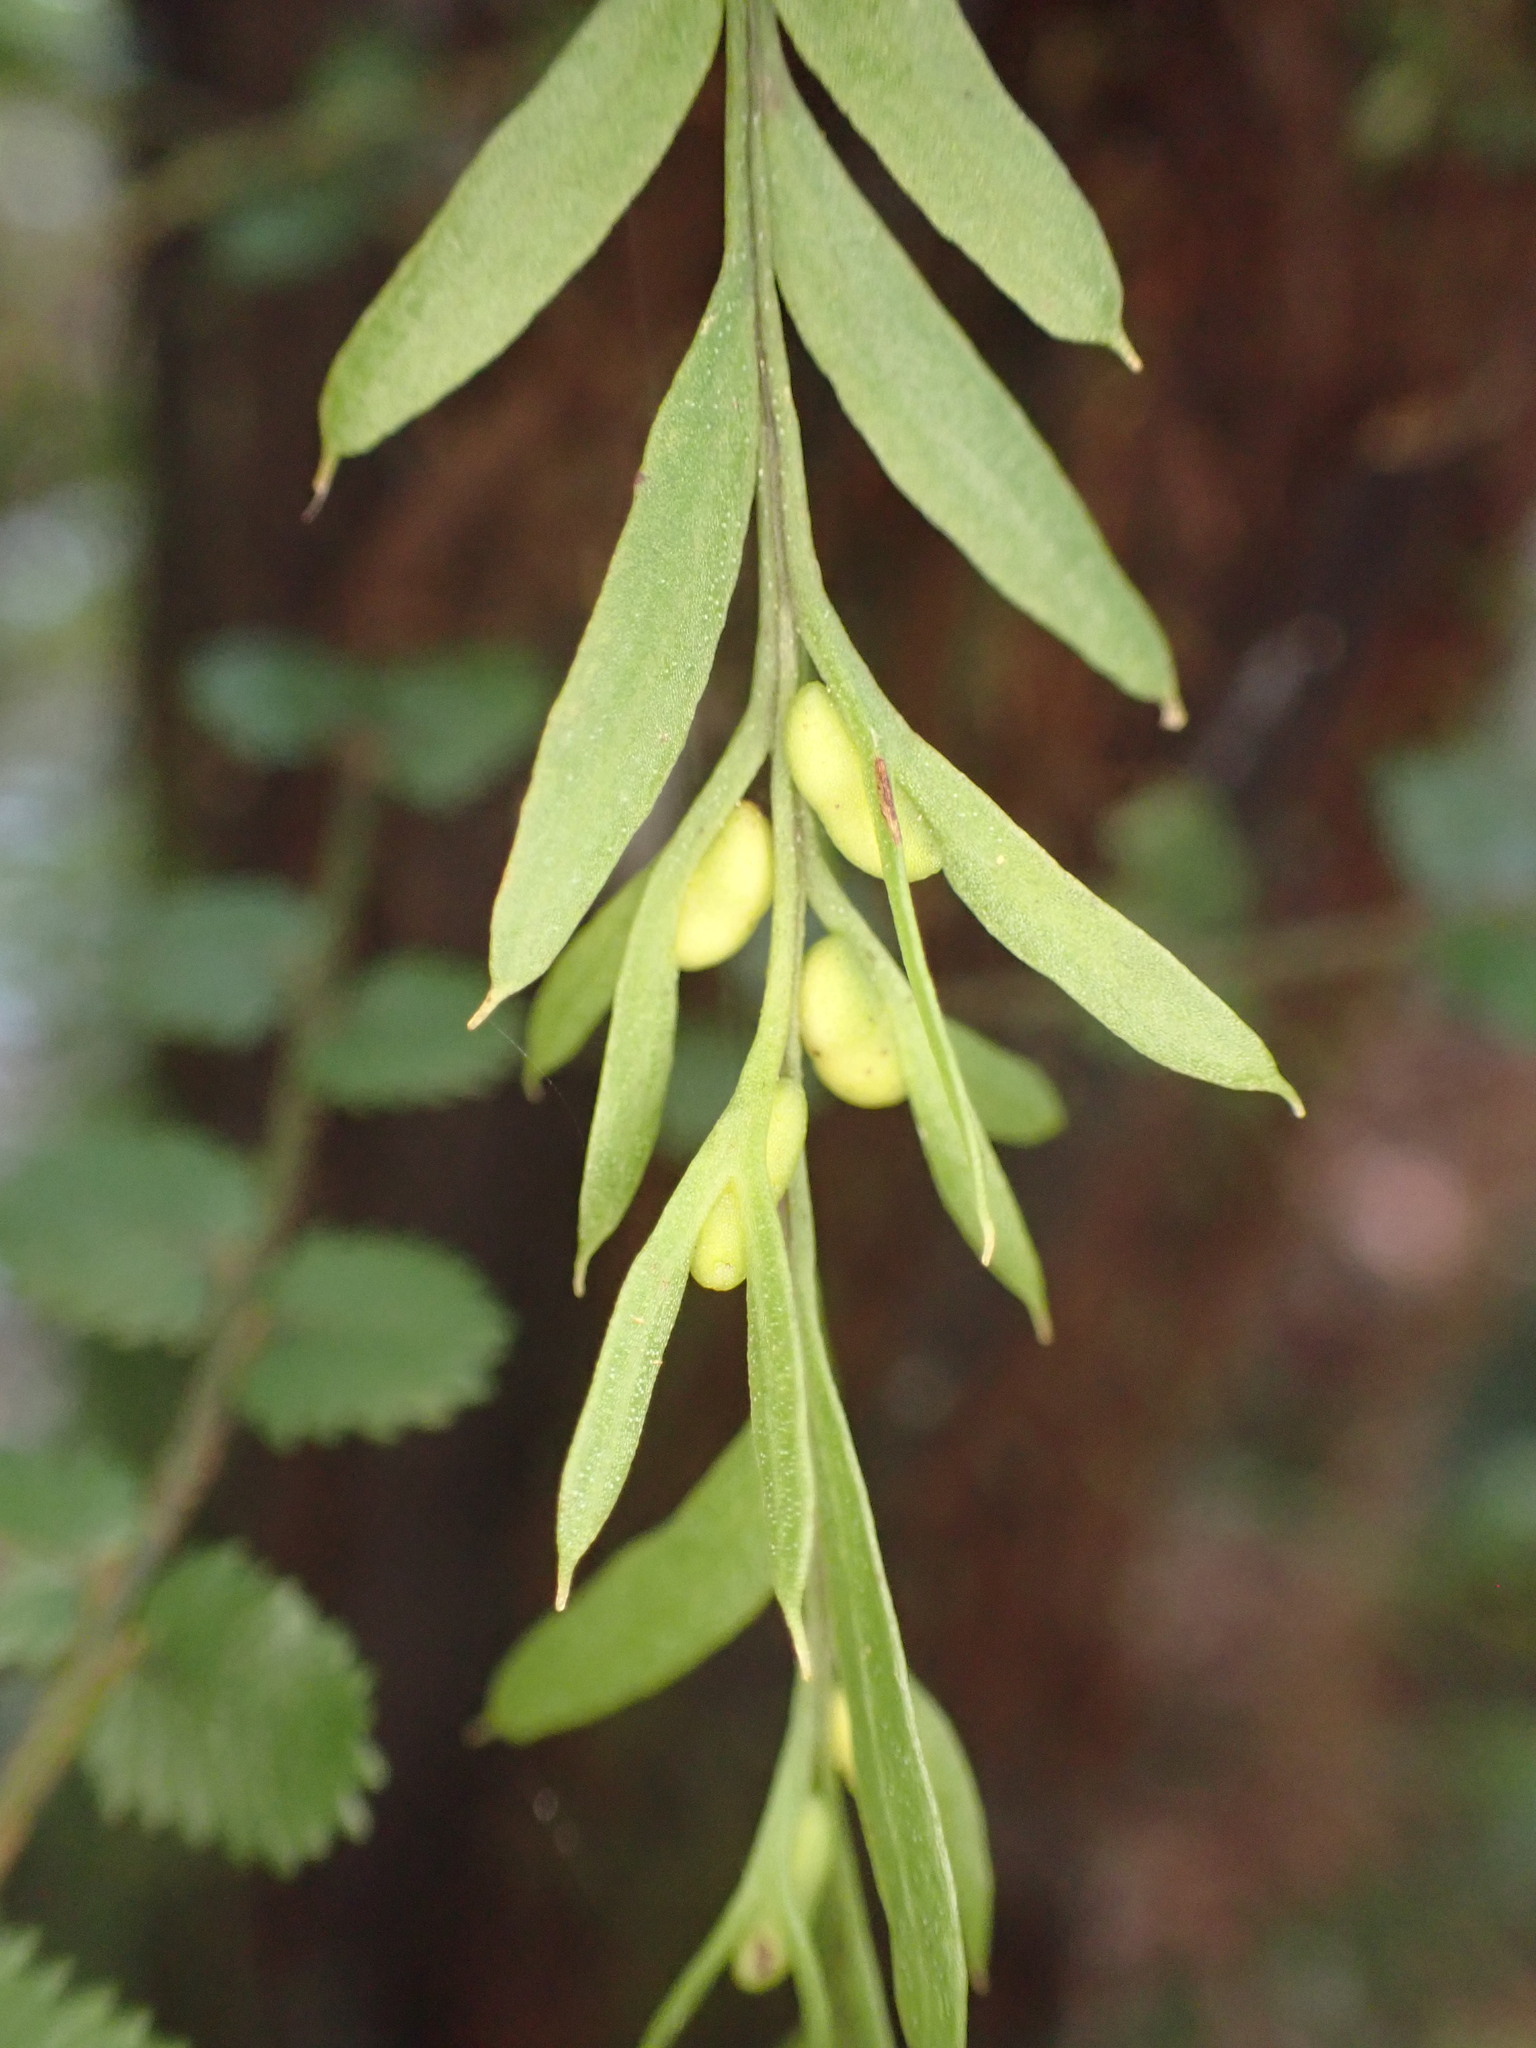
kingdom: Plantae
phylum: Tracheophyta
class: Polypodiopsida
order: Psilotales
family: Psilotaceae
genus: Tmesipteris
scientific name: Tmesipteris elongata
